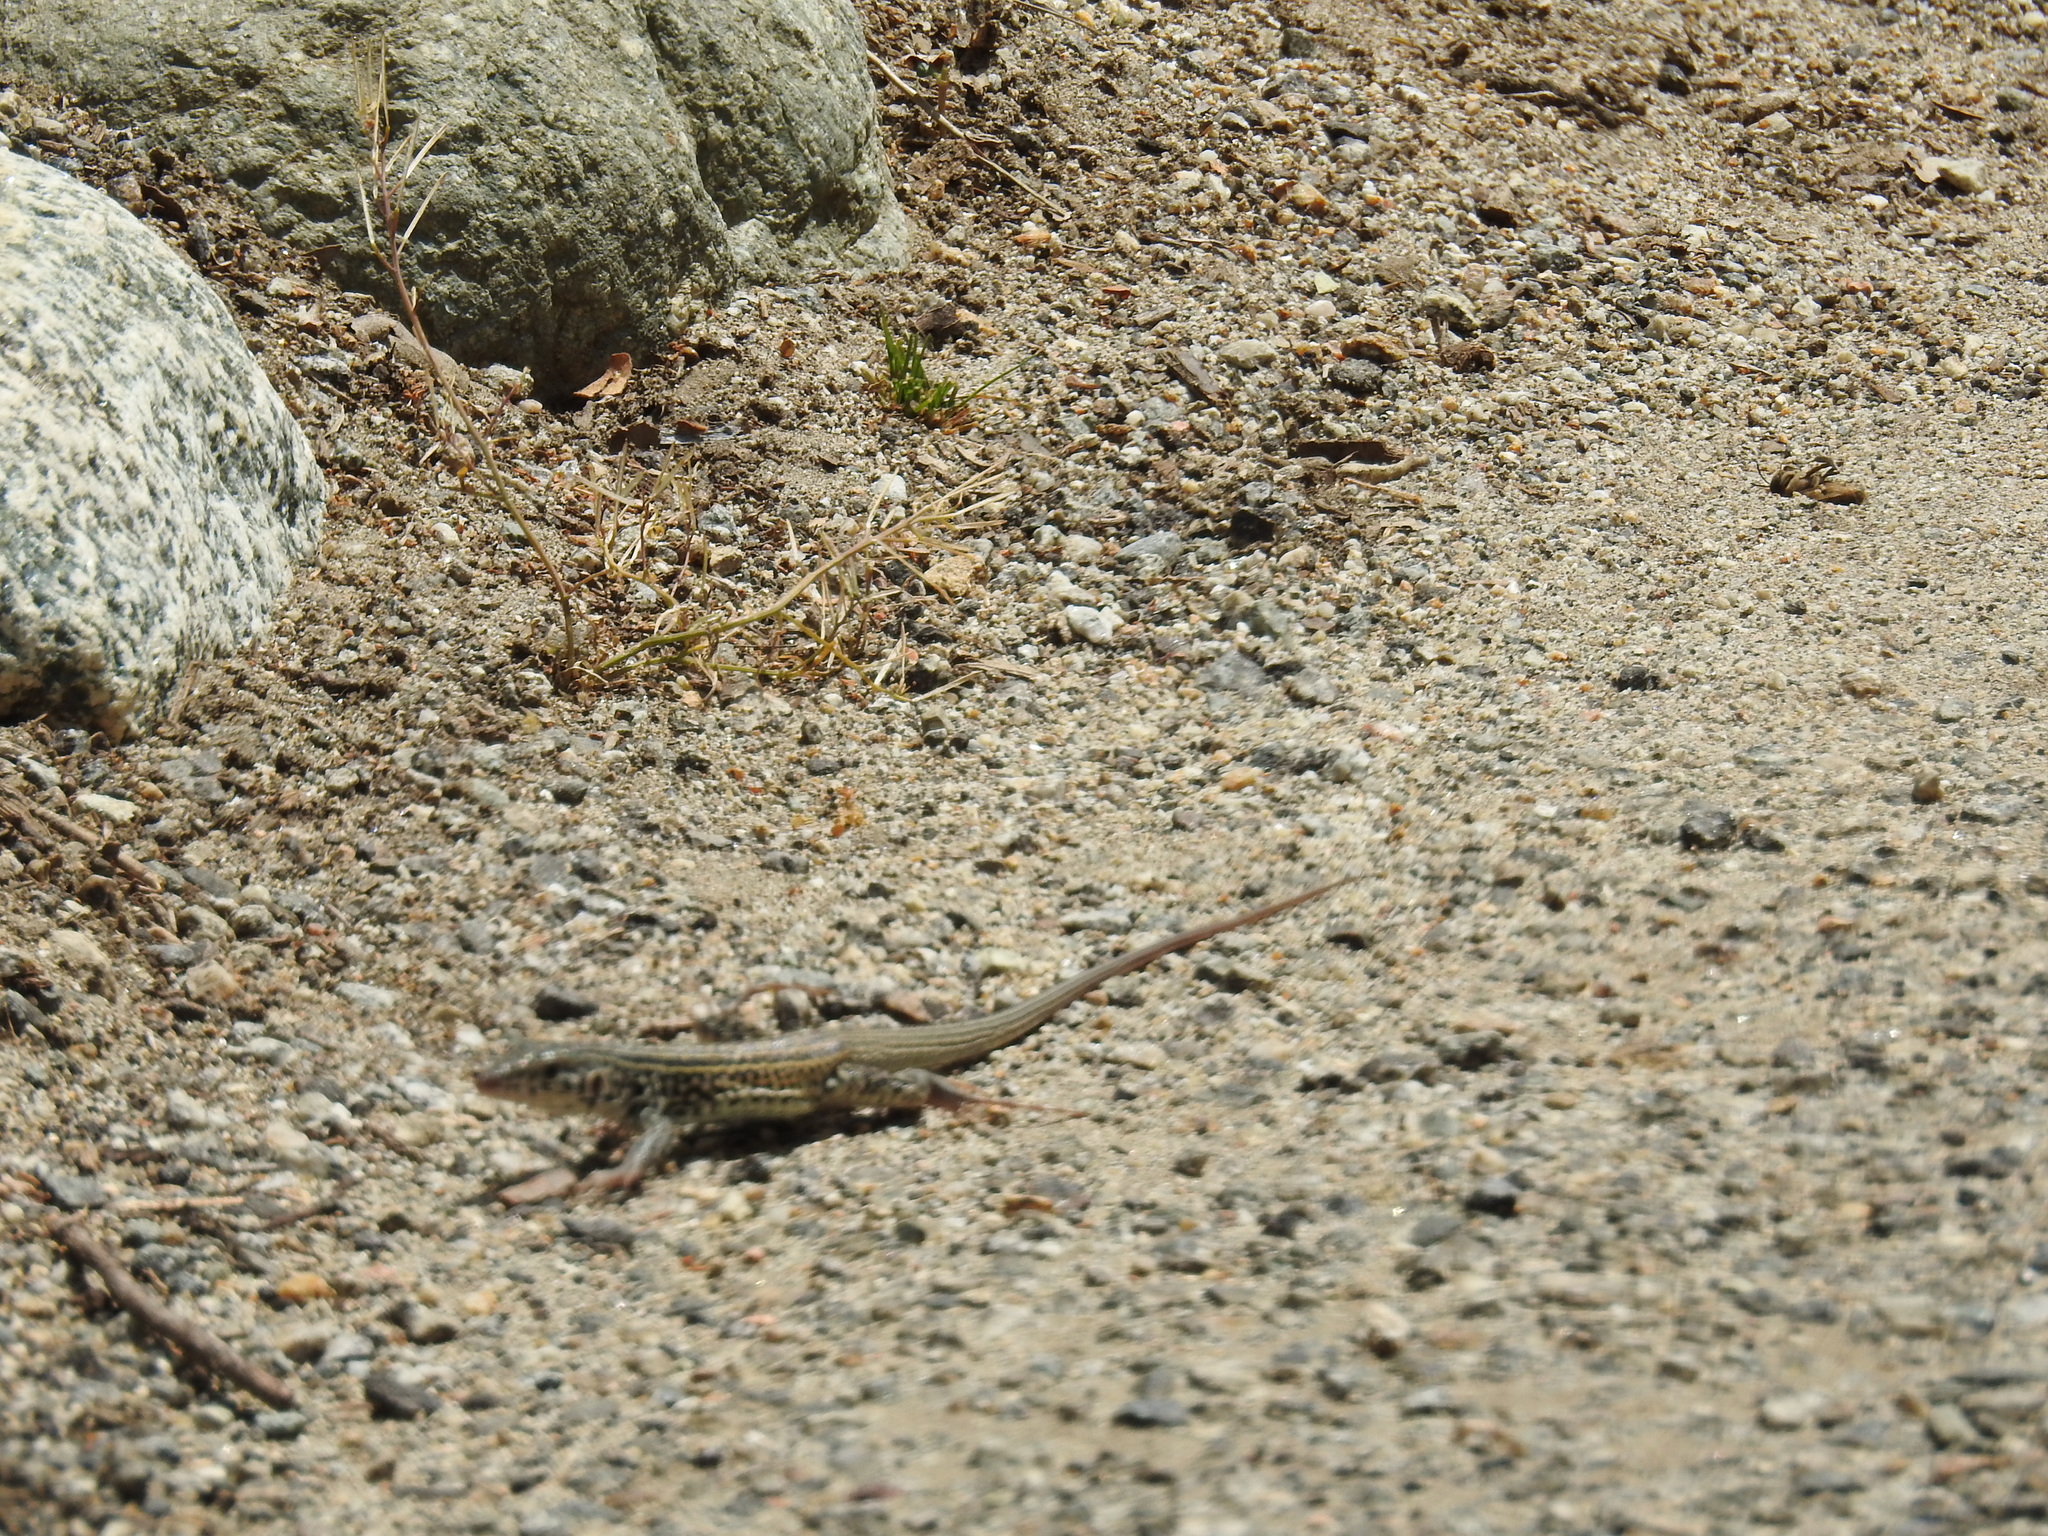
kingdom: Animalia
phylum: Chordata
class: Squamata
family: Teiidae
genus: Aspidoscelis
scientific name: Aspidoscelis tigris
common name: Tiger whiptail
